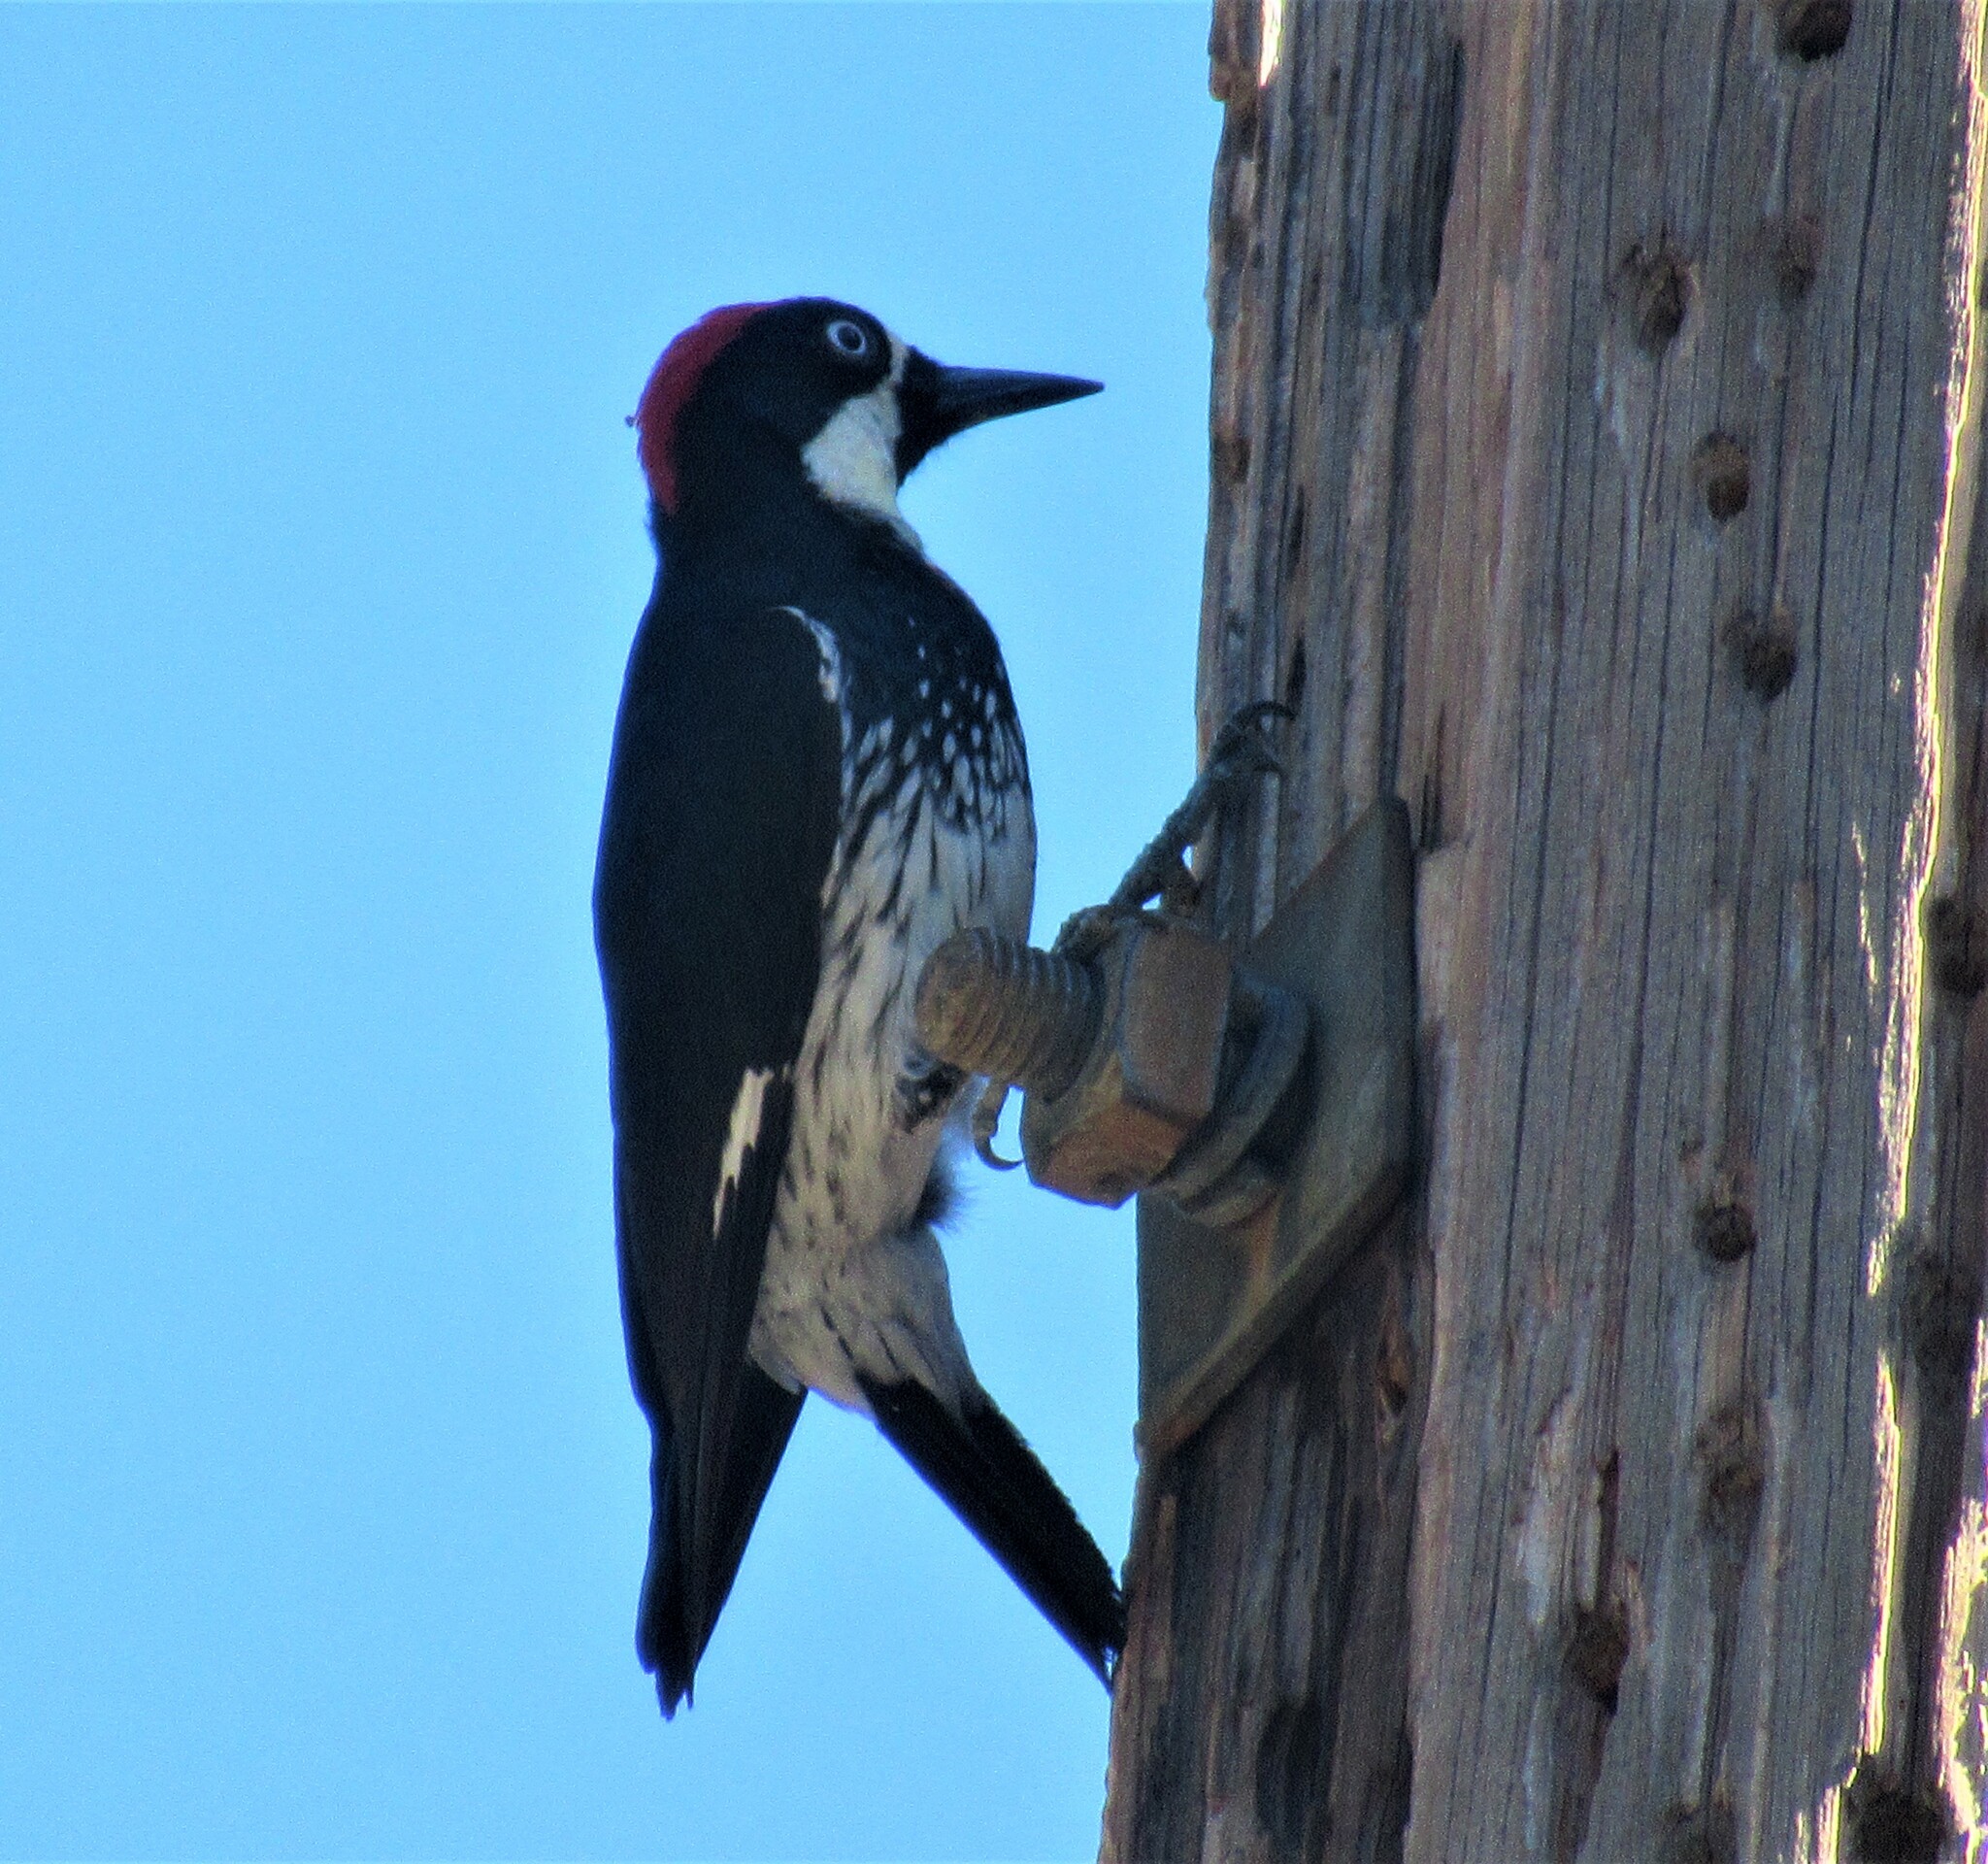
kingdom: Animalia
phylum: Chordata
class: Aves
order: Piciformes
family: Picidae
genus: Melanerpes
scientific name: Melanerpes formicivorus
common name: Acorn woodpecker
